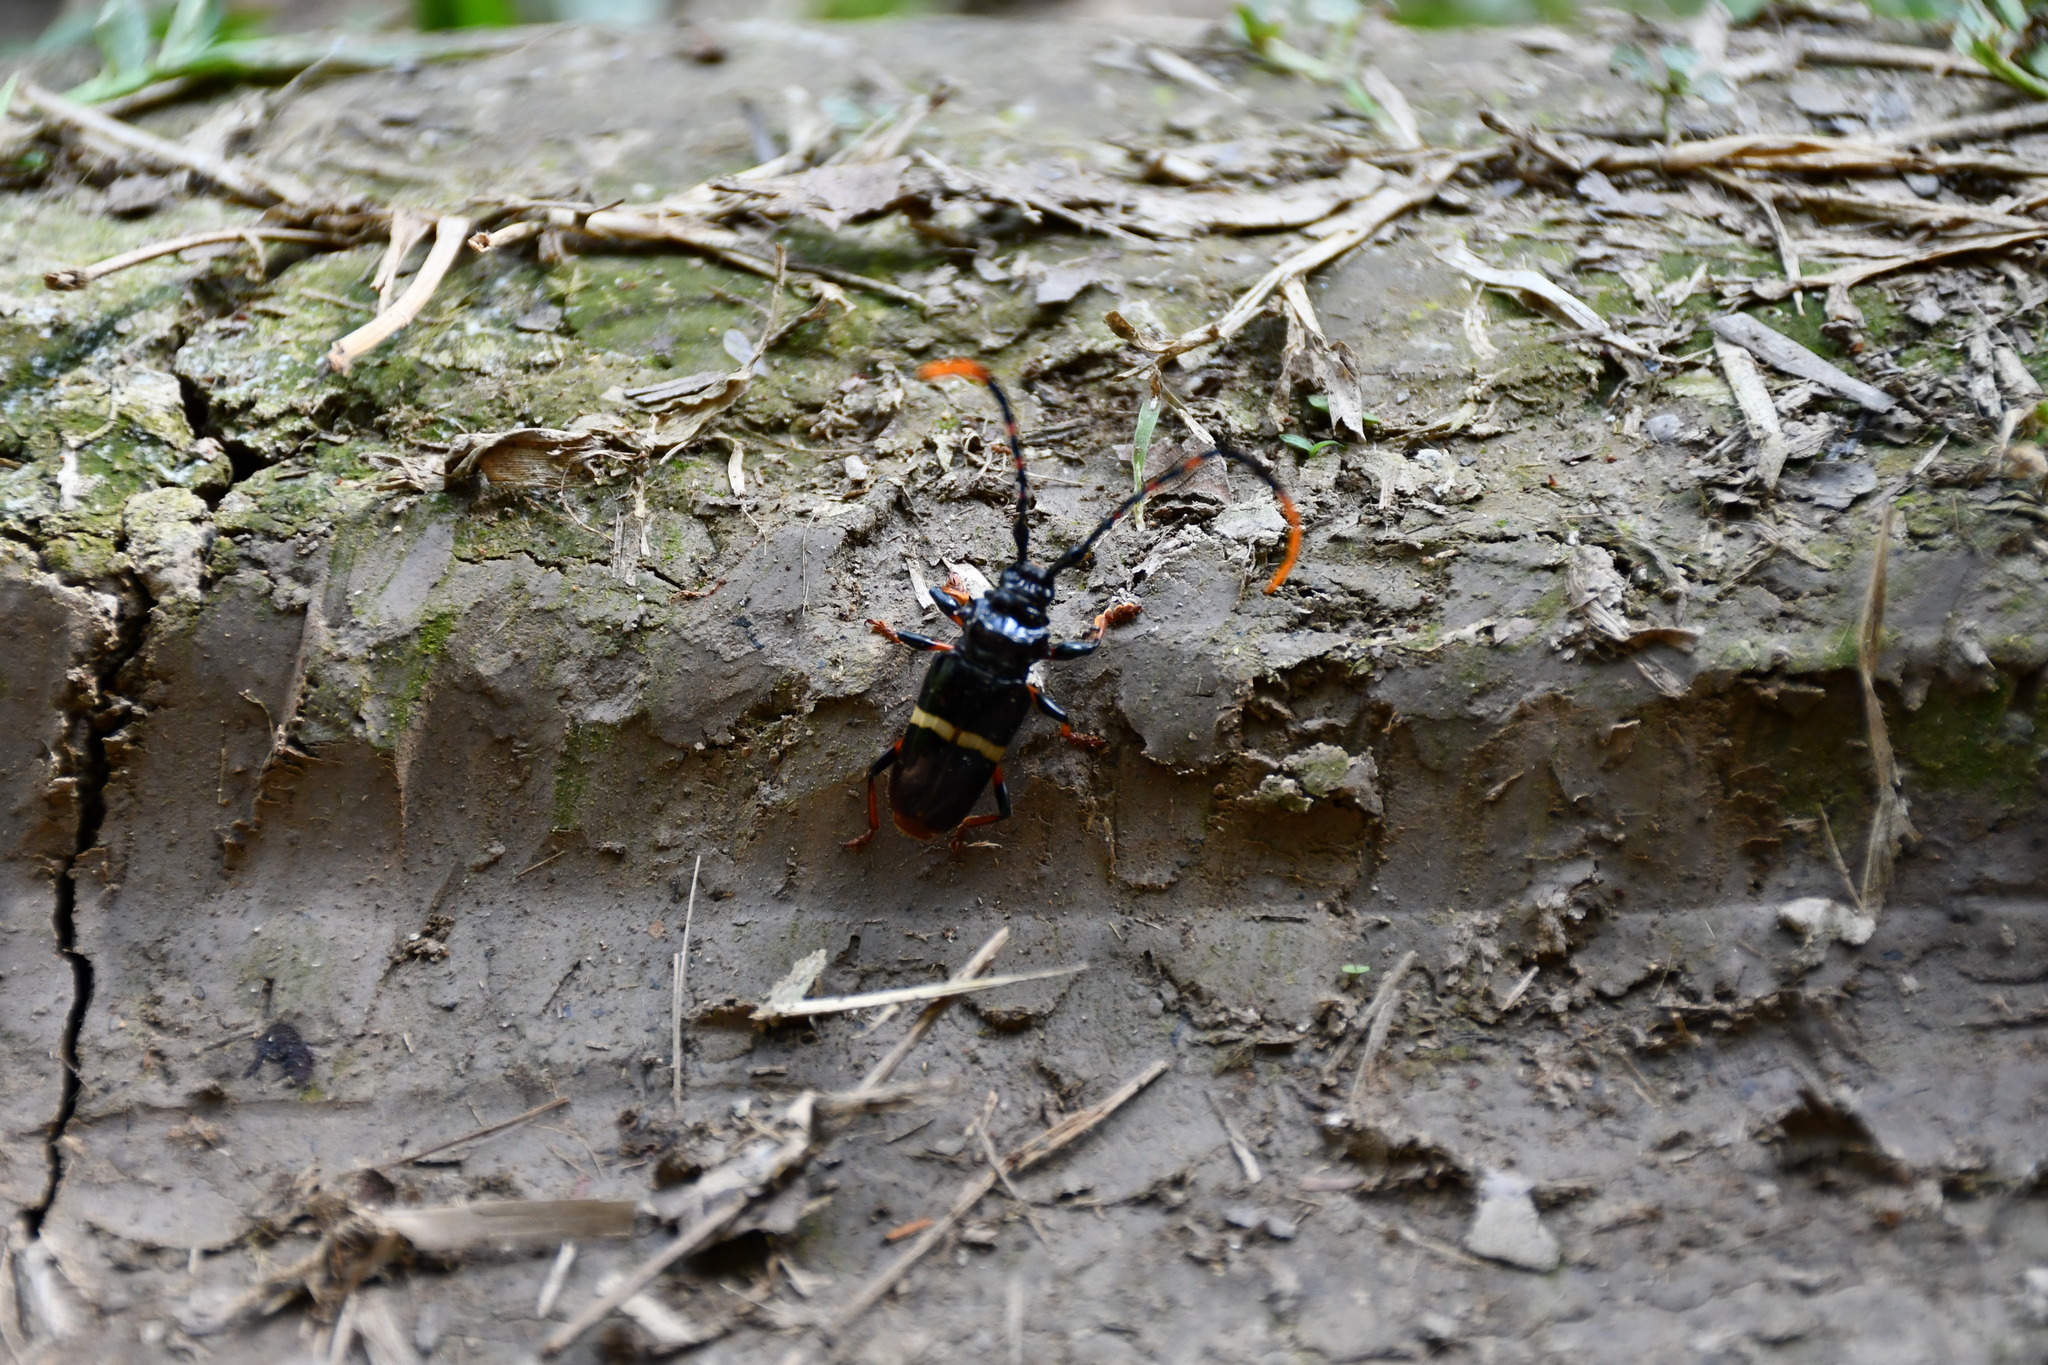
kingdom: Animalia
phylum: Arthropoda
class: Insecta
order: Coleoptera
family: Cerambycidae
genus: Trachyderes
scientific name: Trachyderes succinctus
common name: Mango longhorn
